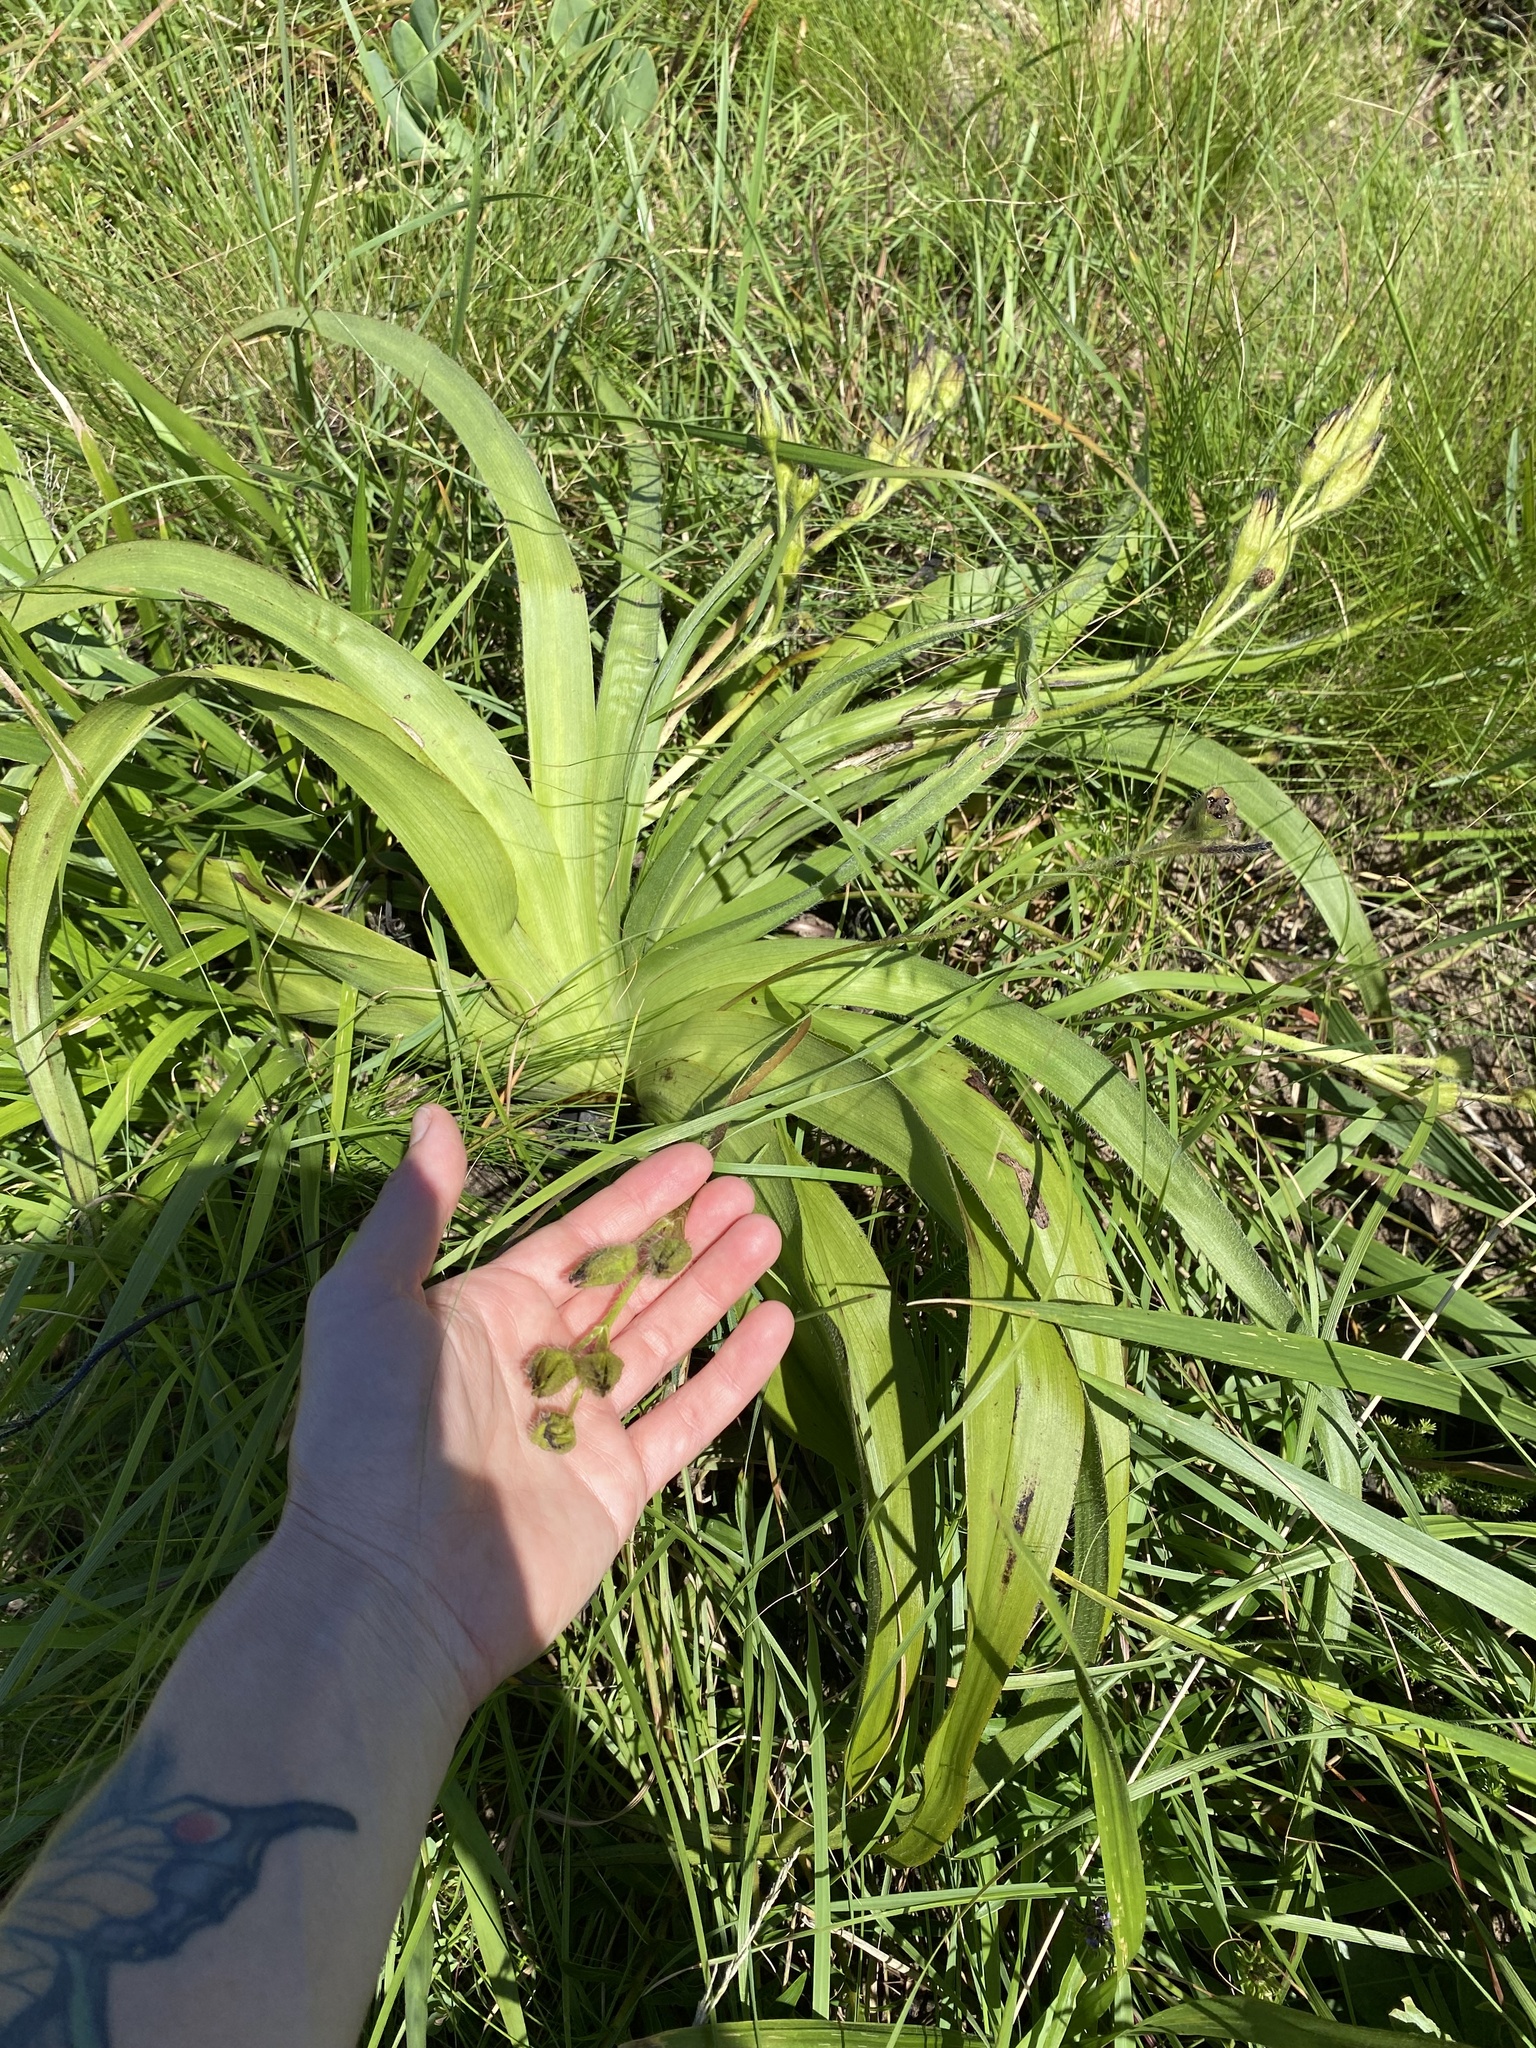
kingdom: Plantae
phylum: Tracheophyta
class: Liliopsida
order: Asparagales
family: Hypoxidaceae
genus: Hypoxis
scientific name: Hypoxis hemerocallidea
